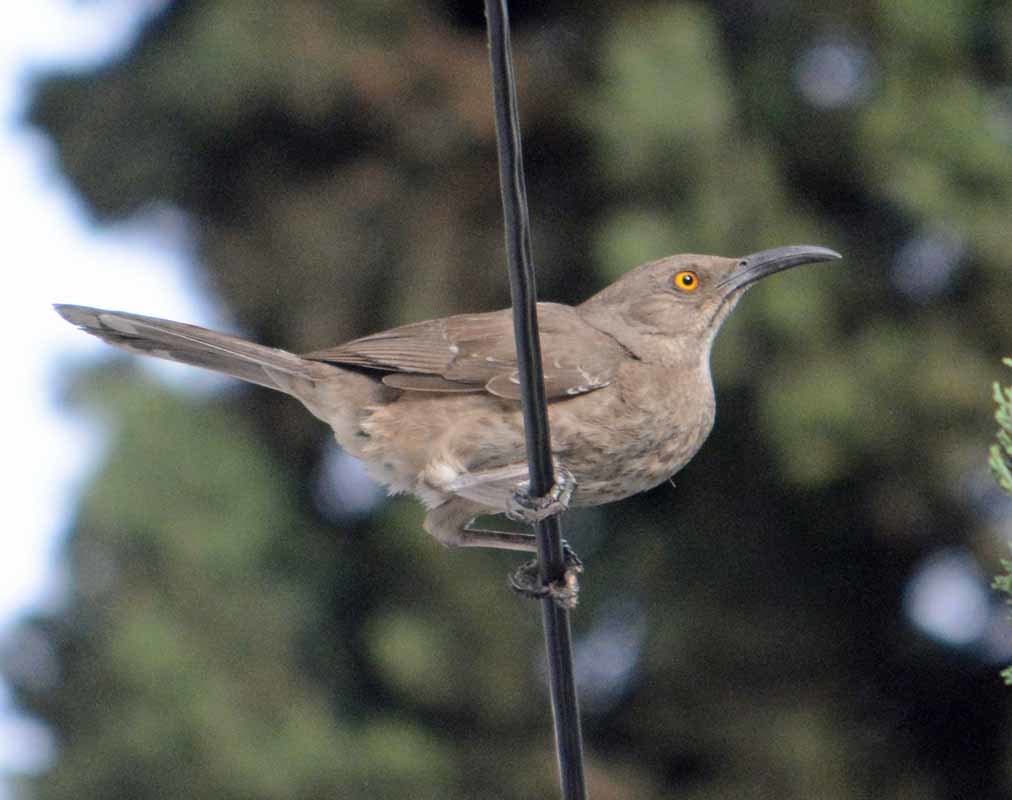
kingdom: Animalia
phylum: Chordata
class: Aves
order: Passeriformes
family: Mimidae
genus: Toxostoma
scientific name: Toxostoma curvirostre
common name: Curve-billed thrasher
